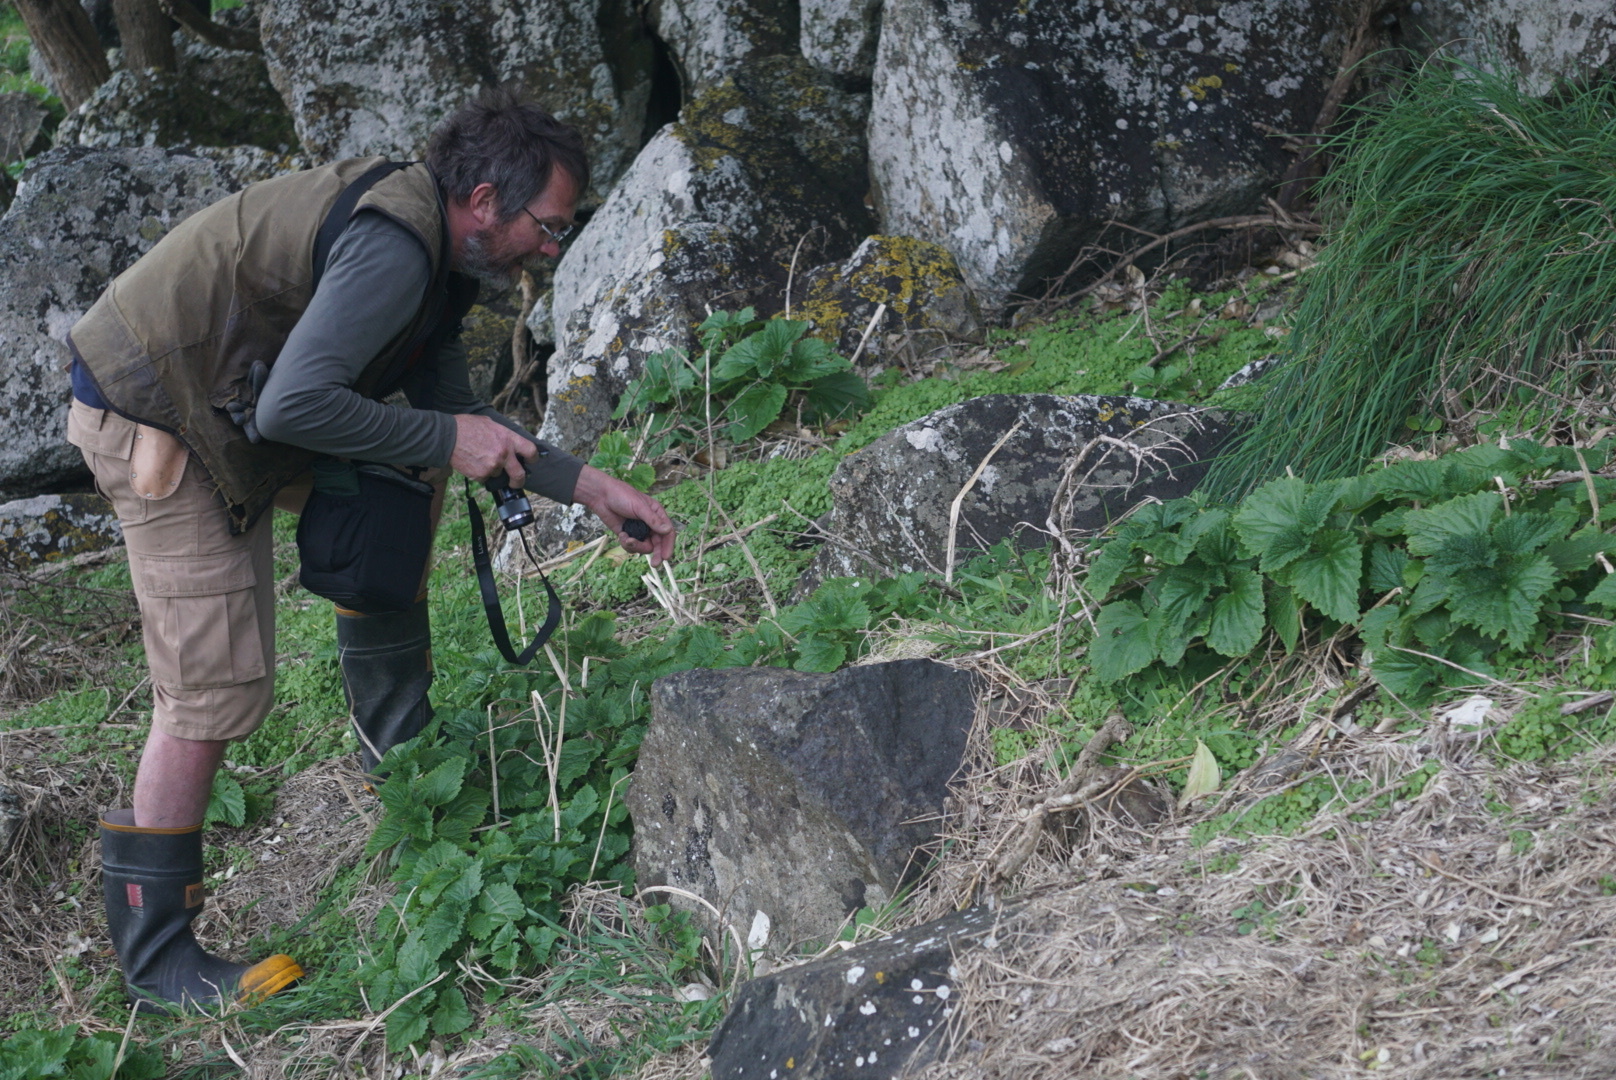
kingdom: Plantae
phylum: Tracheophyta
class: Magnoliopsida
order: Rosales
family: Urticaceae
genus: Urtica
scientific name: Urtica australis
